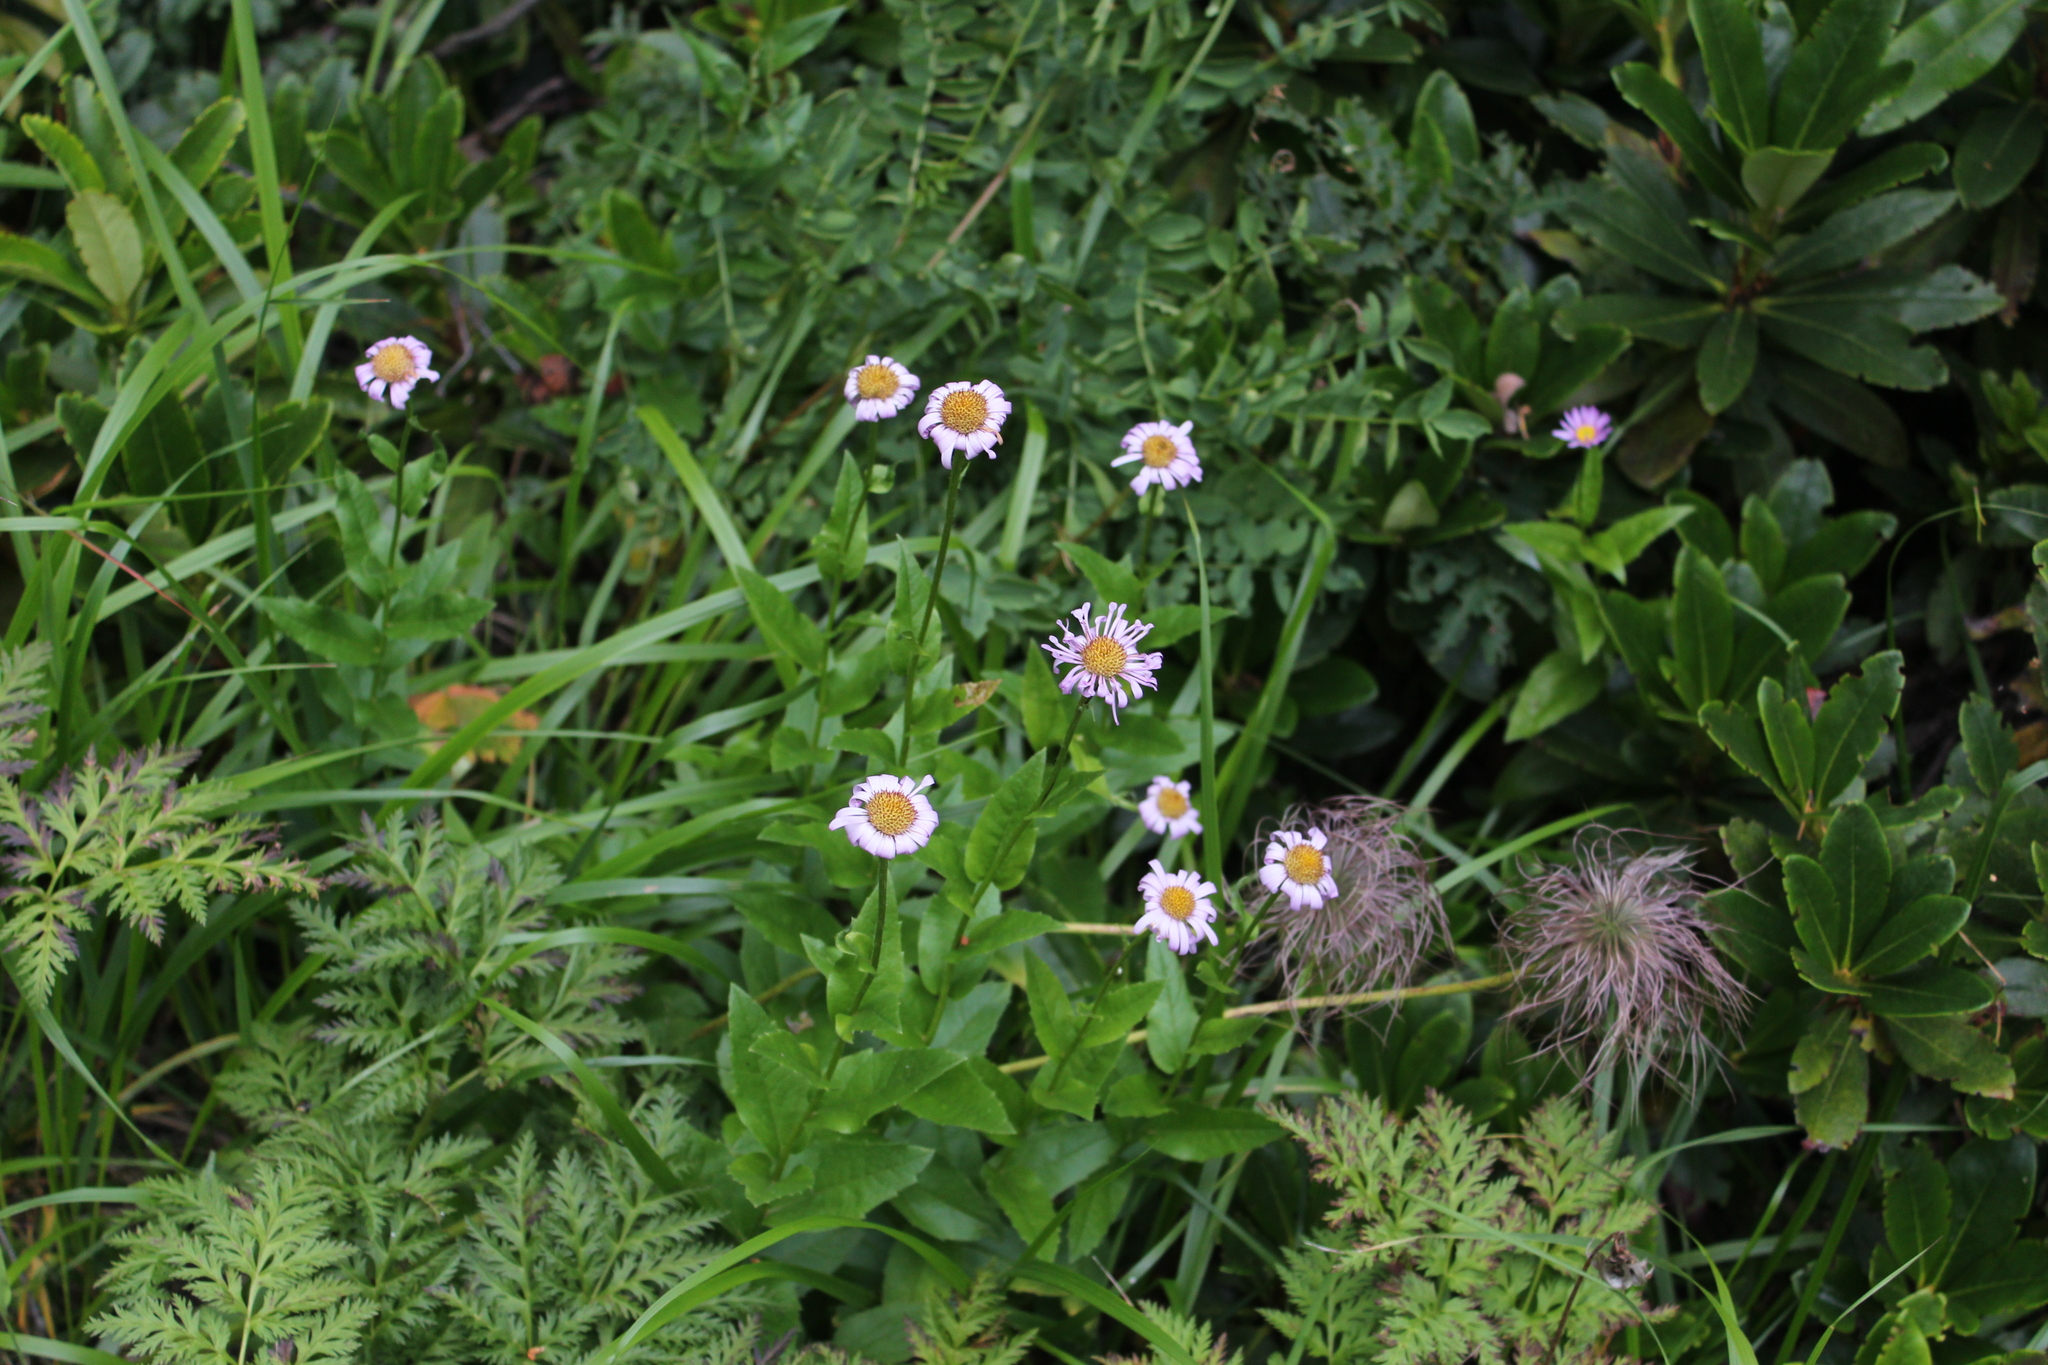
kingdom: Plantae
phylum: Tracheophyta
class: Magnoliopsida
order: Asterales
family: Asteraceae
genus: Kemulariella
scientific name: Kemulariella caucasica
